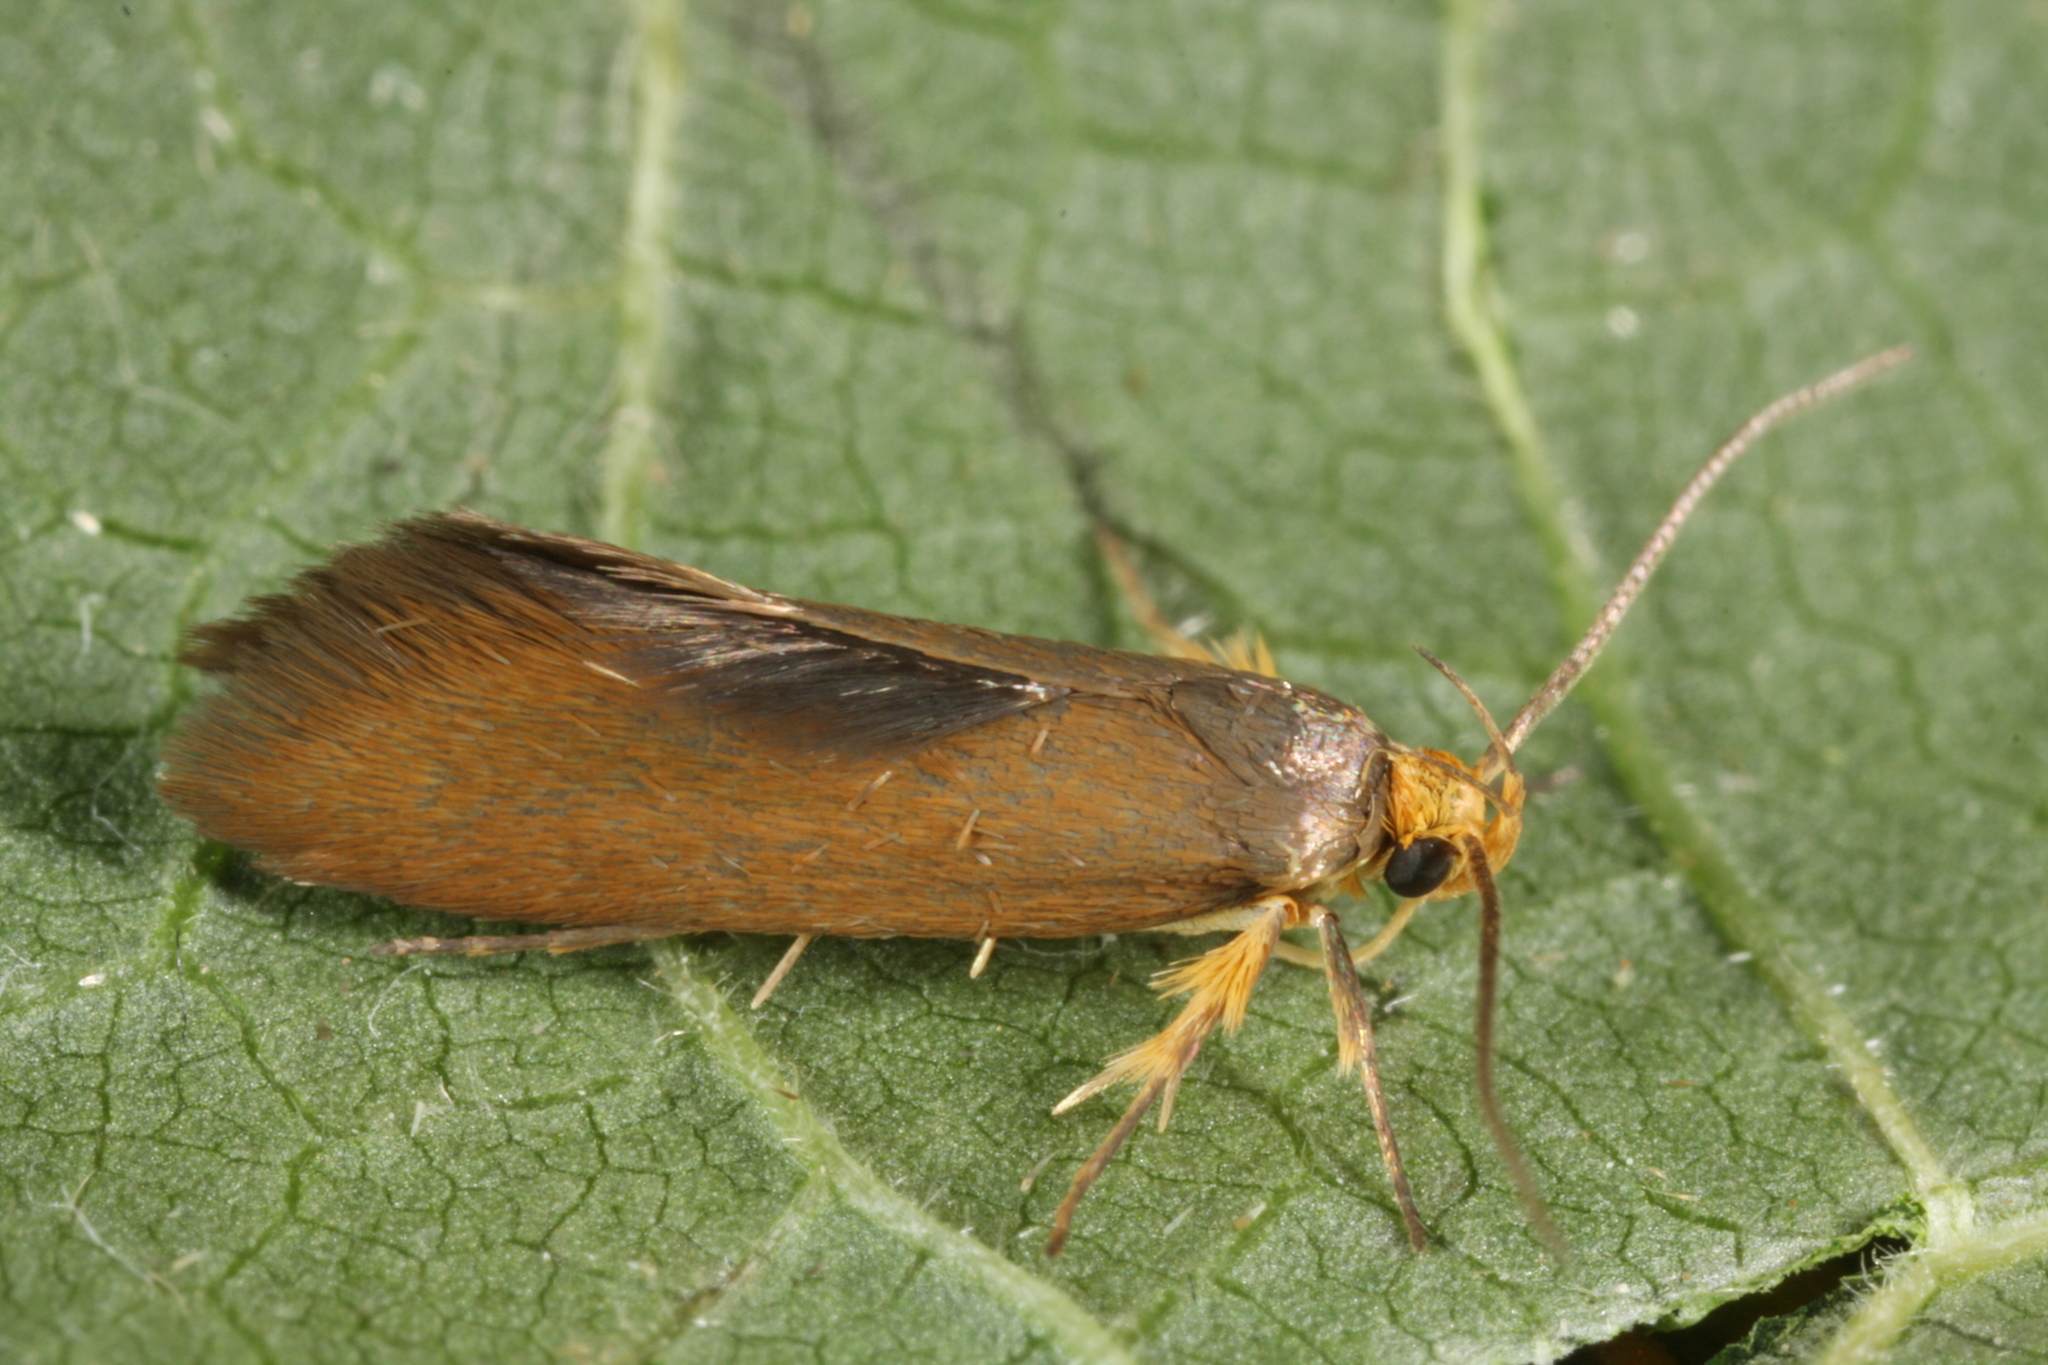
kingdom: Animalia
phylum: Arthropoda
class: Insecta
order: Lepidoptera
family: Oecophoridae
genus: Borkhausenia
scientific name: Borkhausenia Crassa unitella
